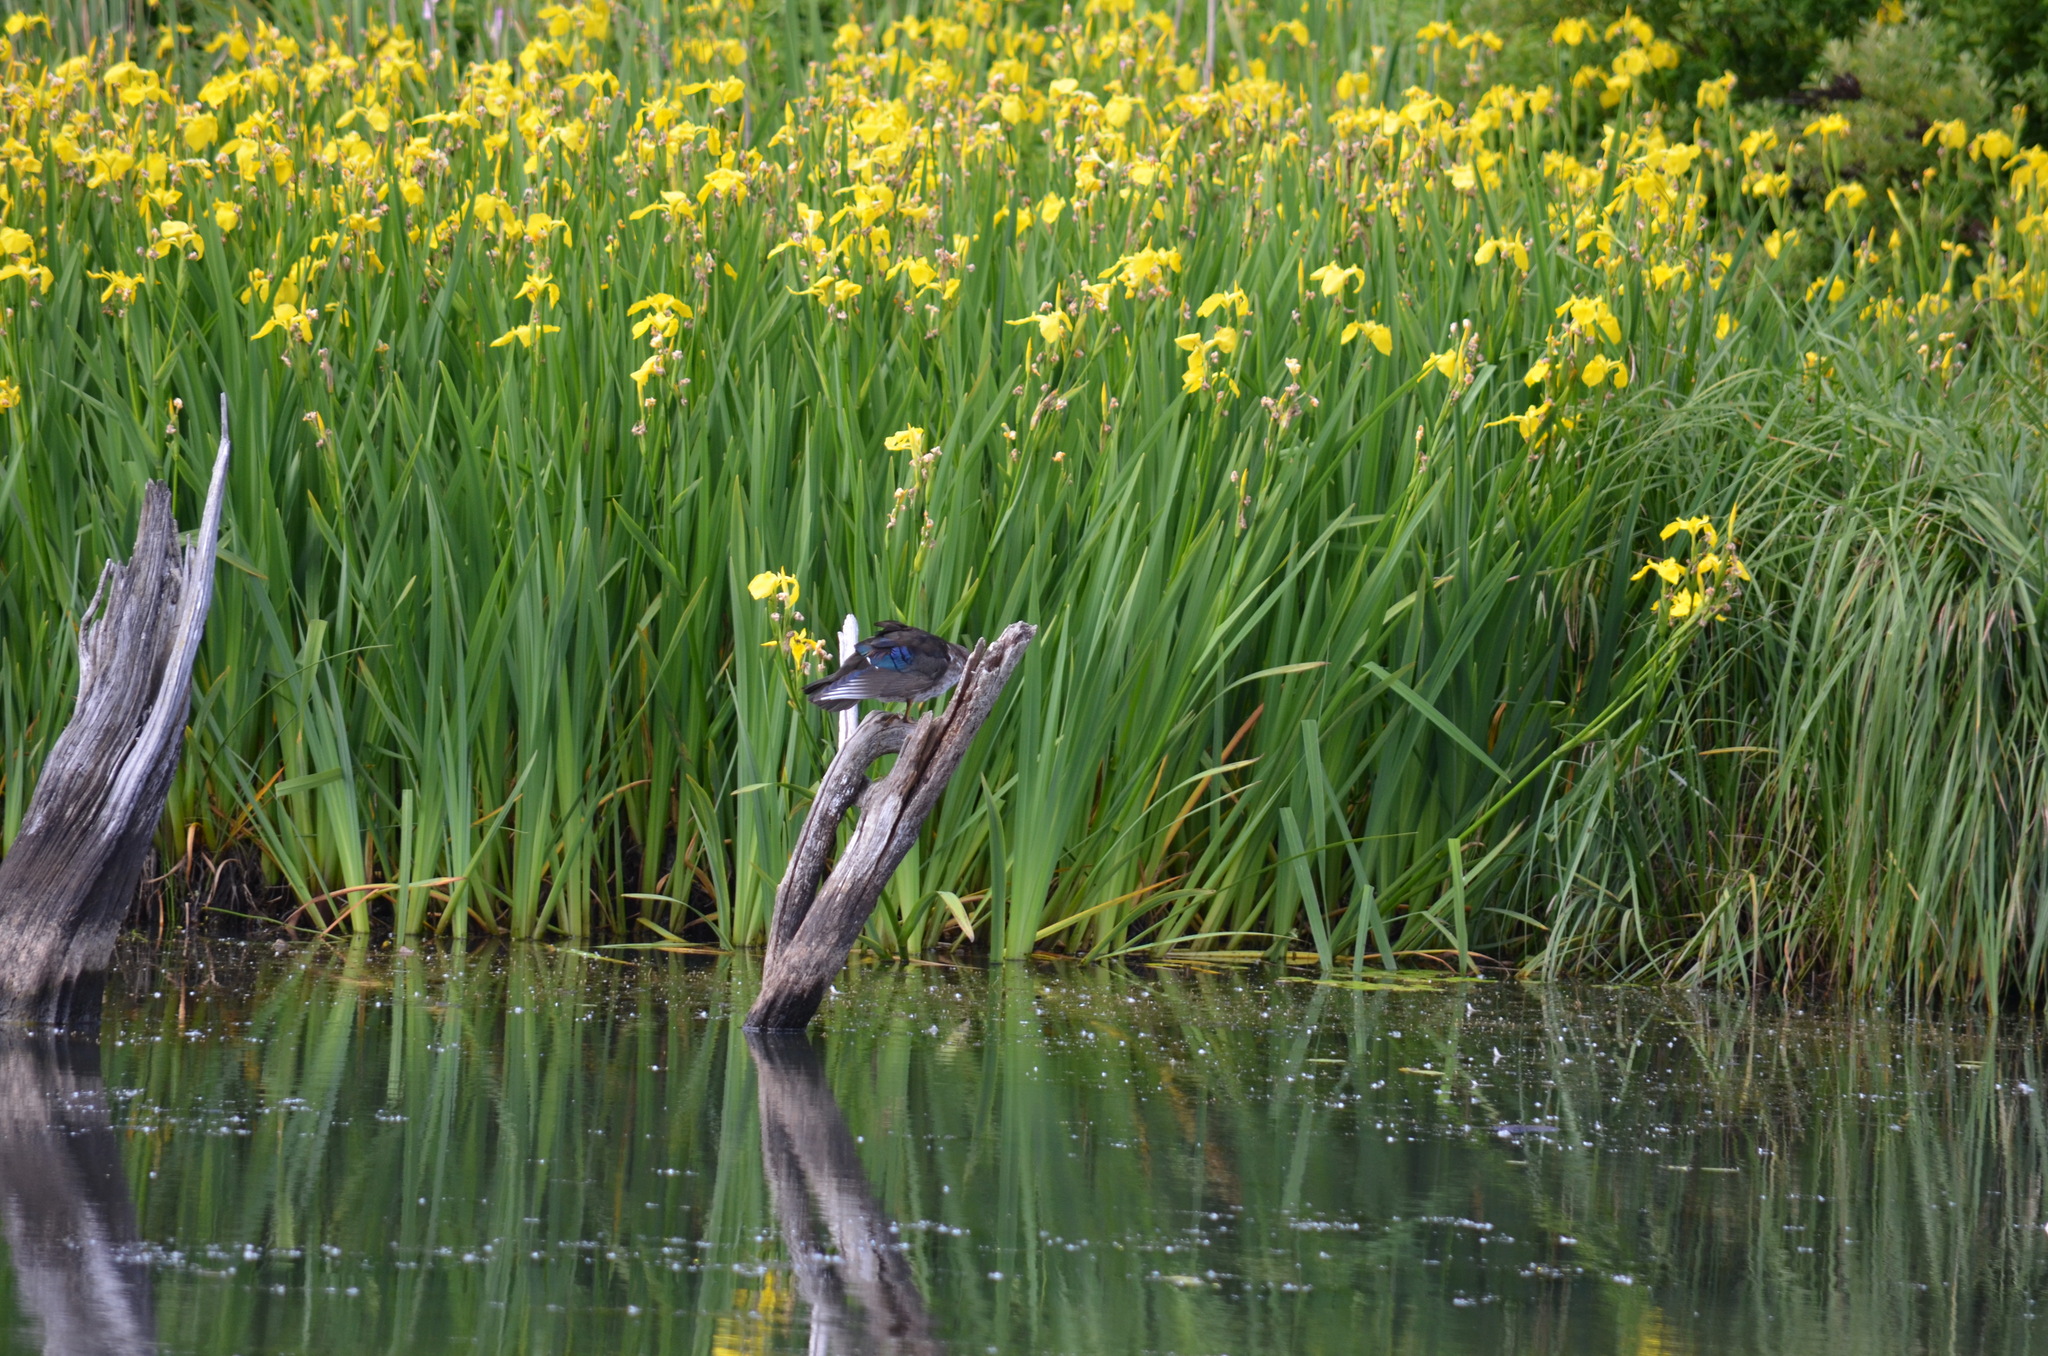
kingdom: Animalia
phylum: Chordata
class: Aves
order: Anseriformes
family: Anatidae
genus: Aix
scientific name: Aix sponsa
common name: Wood duck
